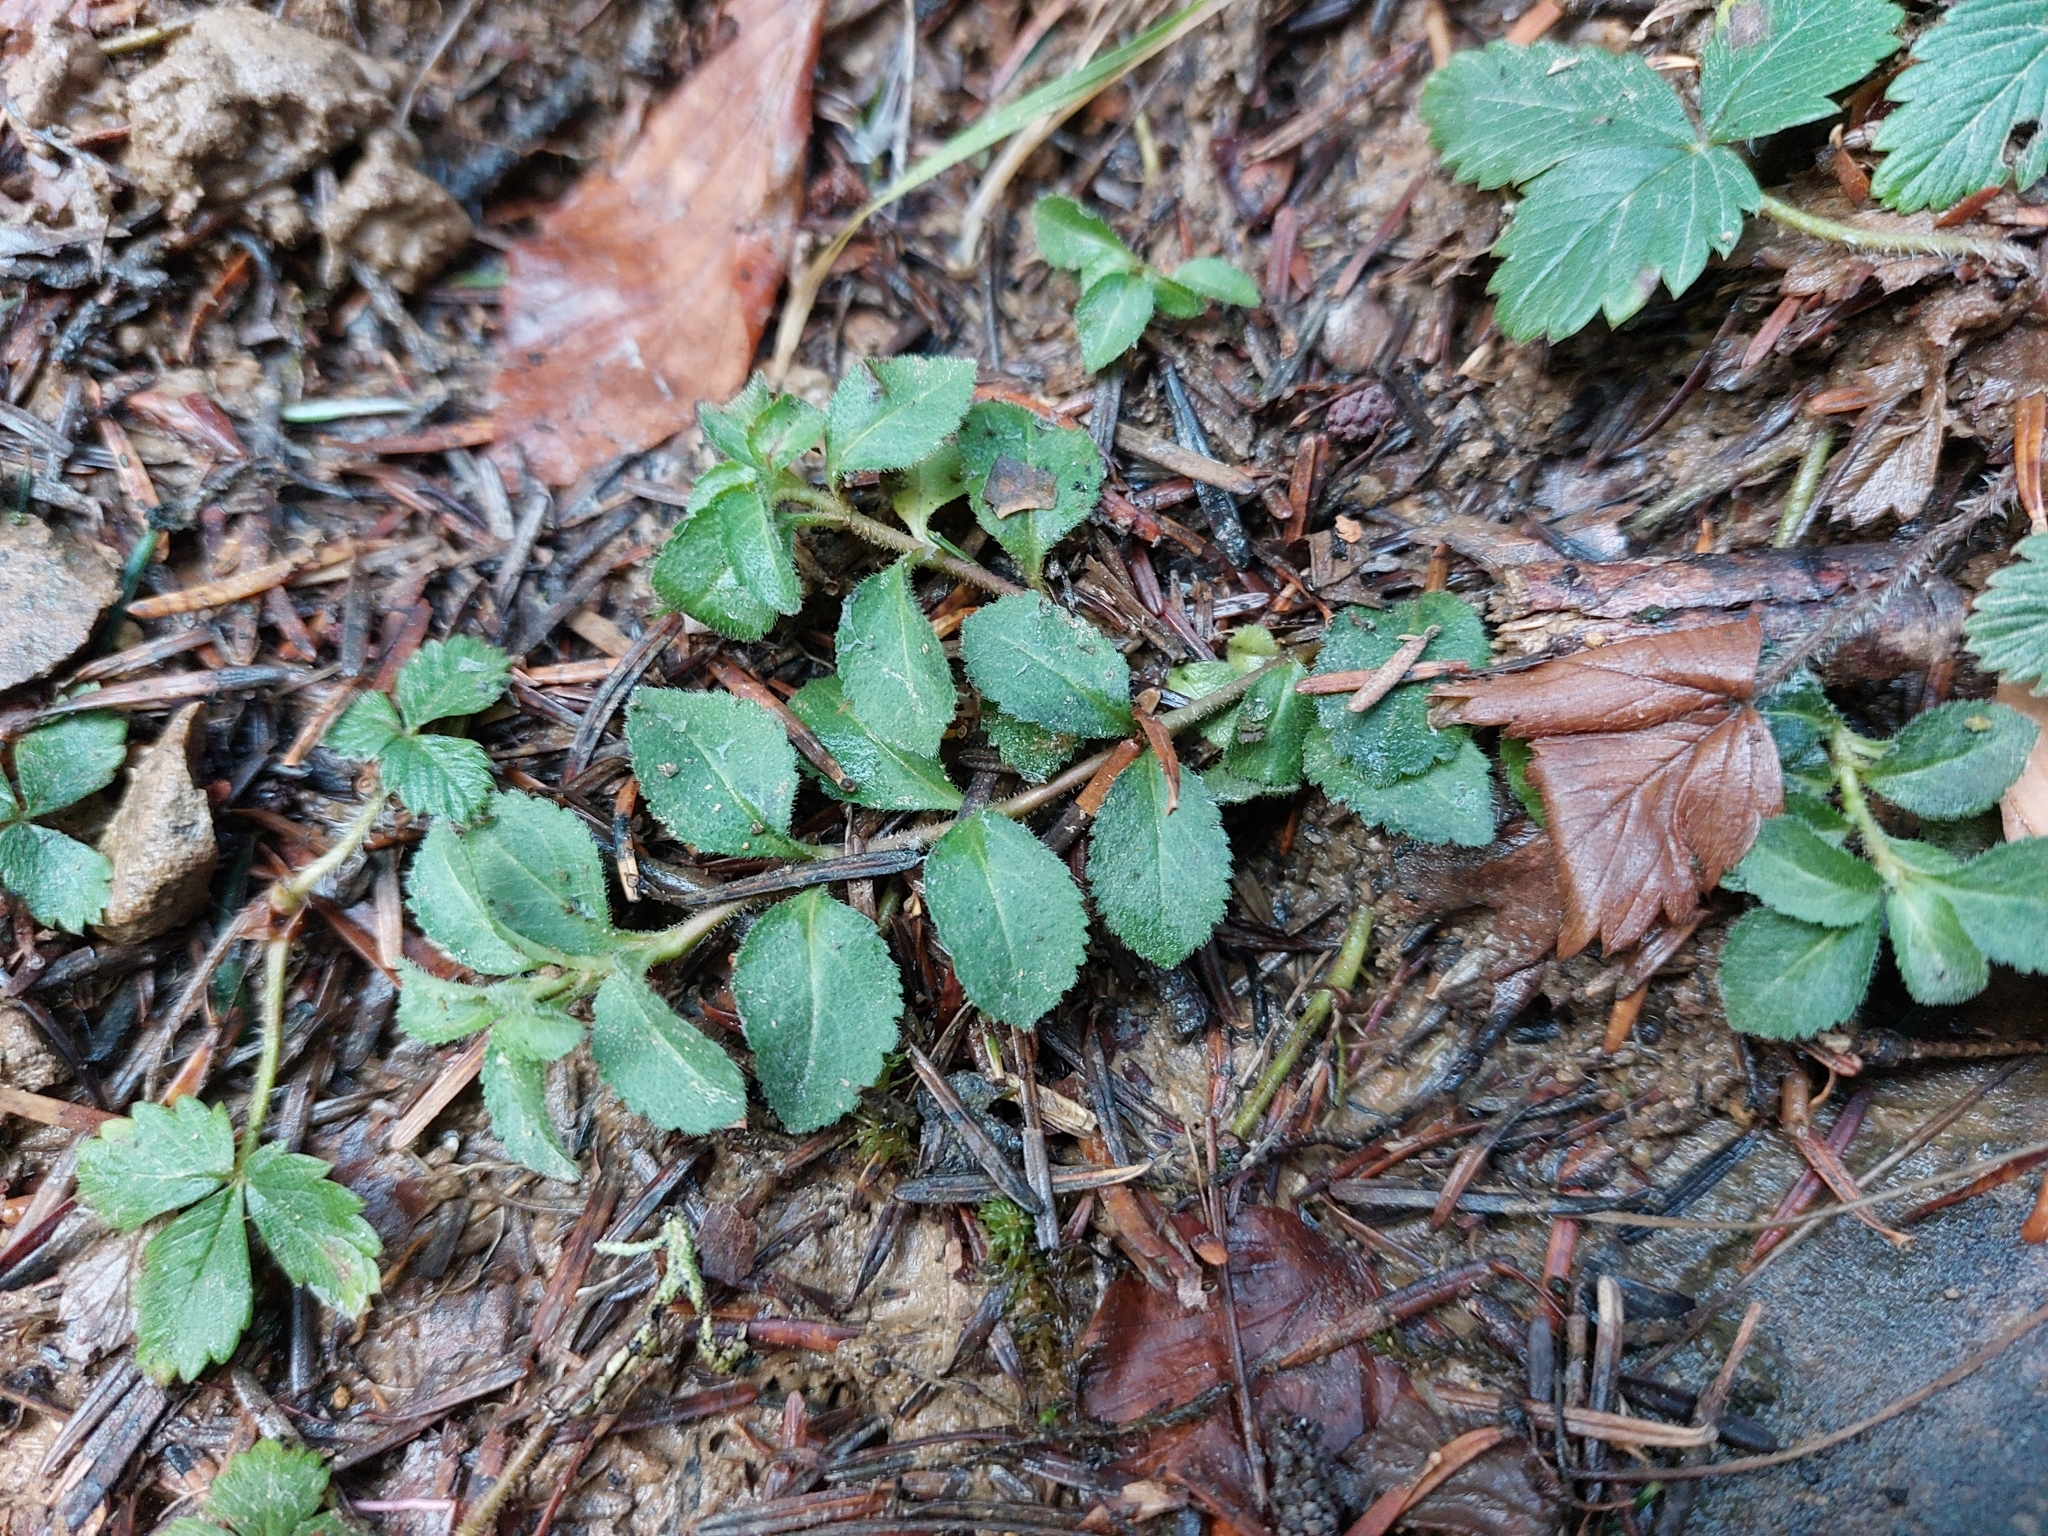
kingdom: Plantae
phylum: Tracheophyta
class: Magnoliopsida
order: Lamiales
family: Plantaginaceae
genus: Veronica
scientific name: Veronica officinalis
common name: Common speedwell
